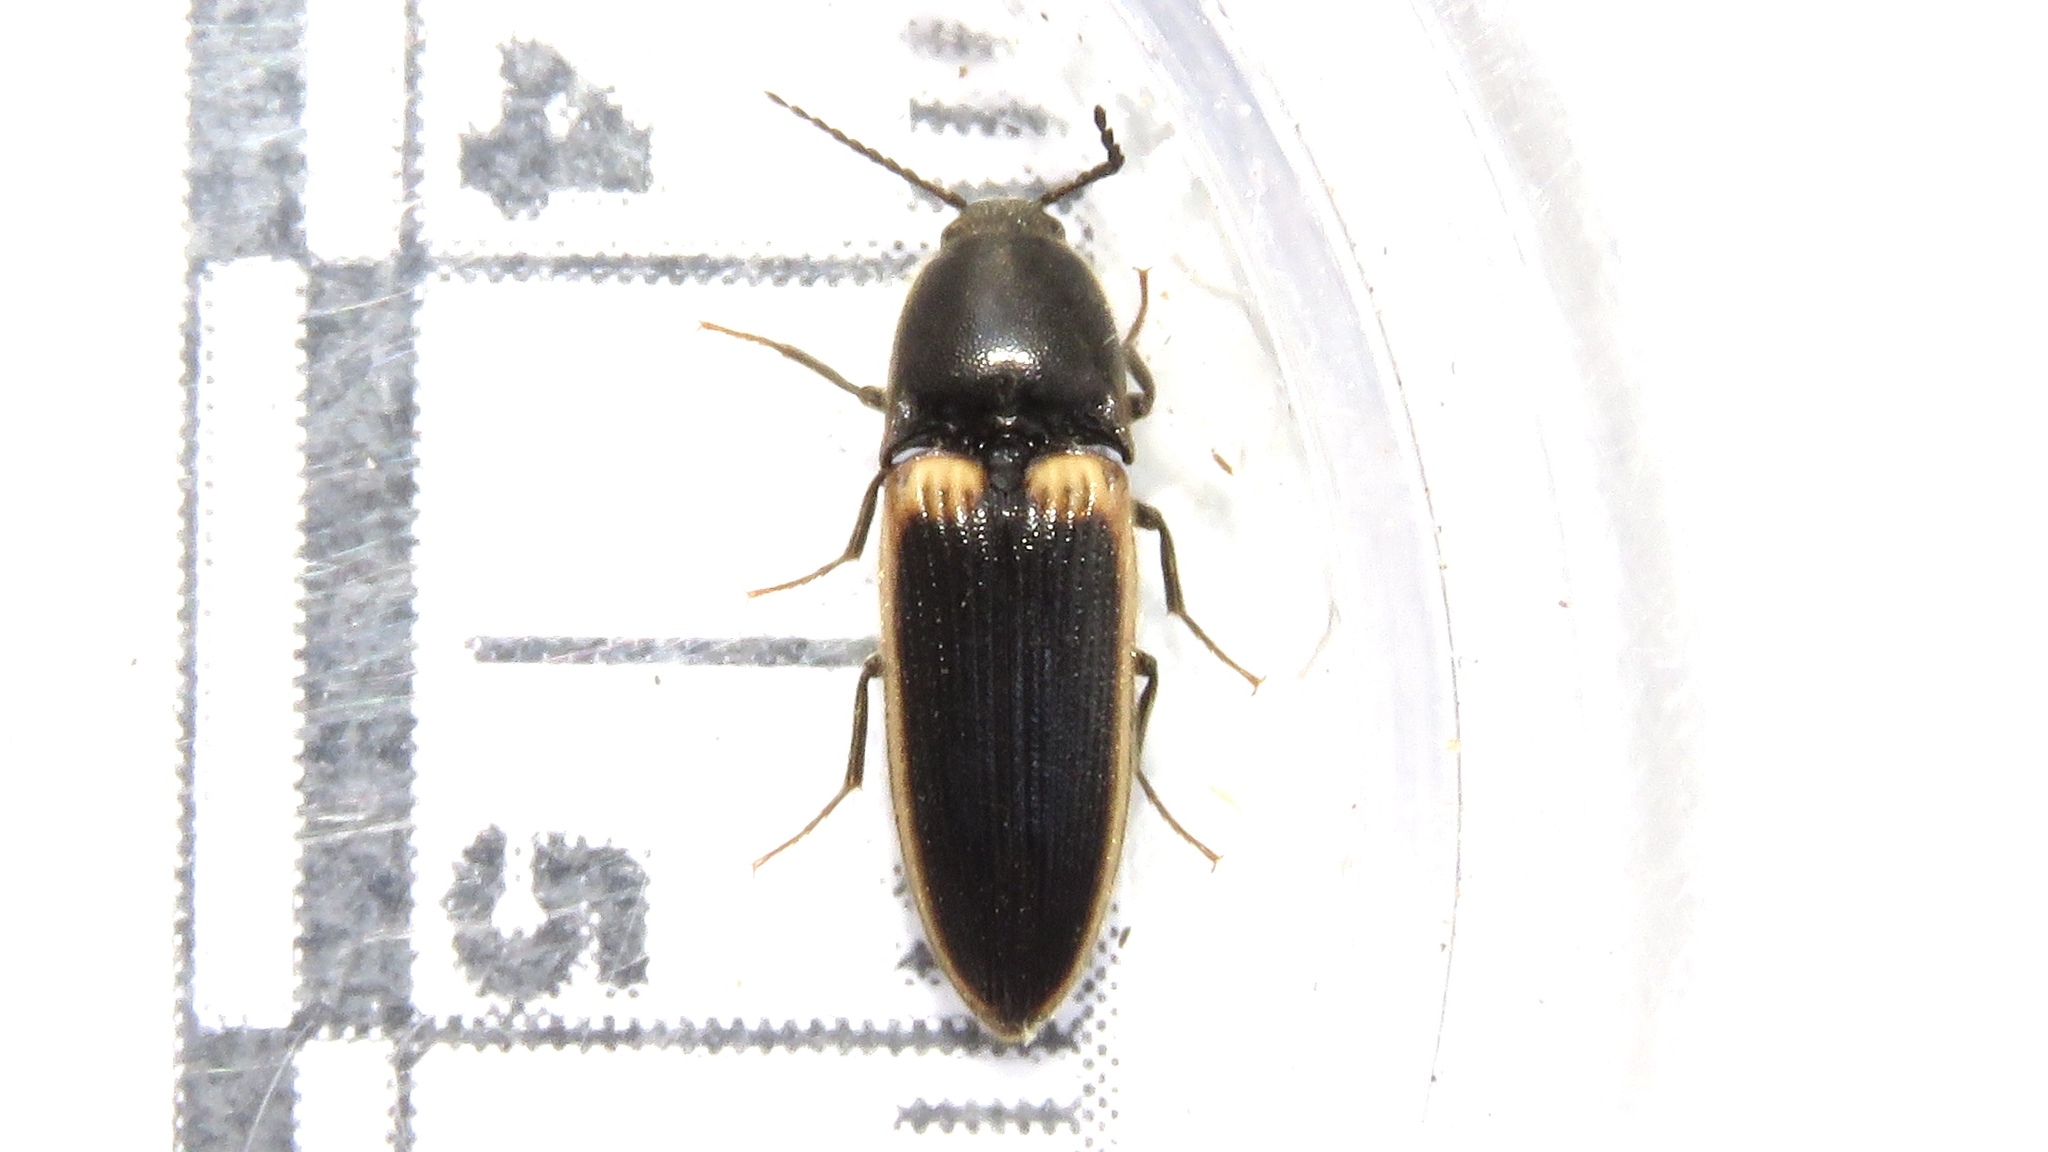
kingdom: Animalia
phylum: Arthropoda
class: Insecta
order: Coleoptera
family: Elateridae
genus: Ampedus
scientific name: Ampedus oblessus
